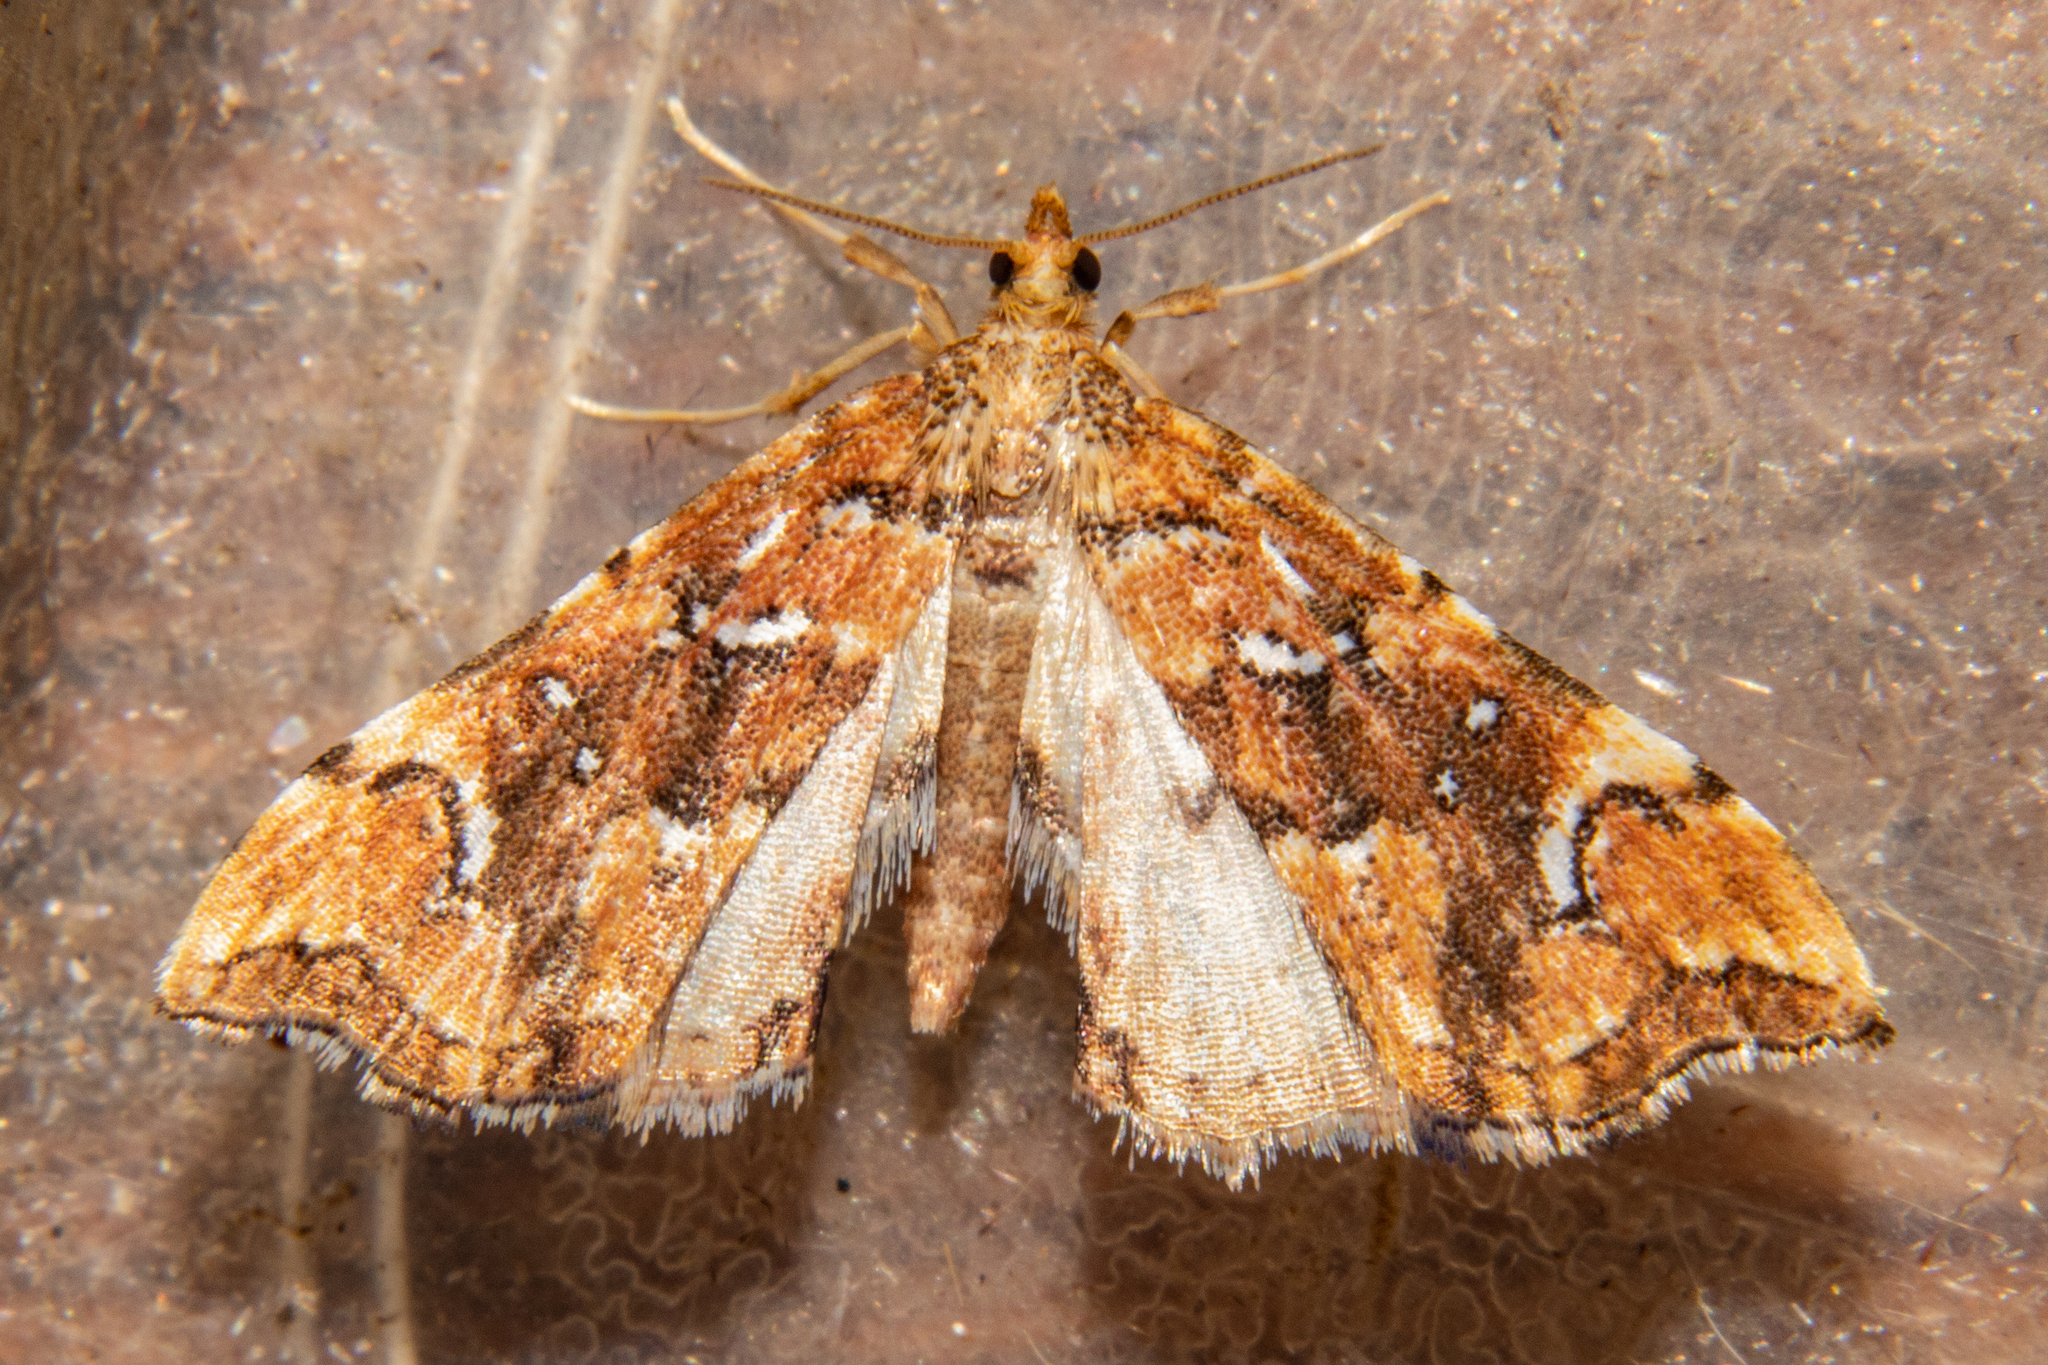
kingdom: Animalia
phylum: Arthropoda
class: Insecta
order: Lepidoptera
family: Pyralidae
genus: Musotima
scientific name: Musotima nitidalis
